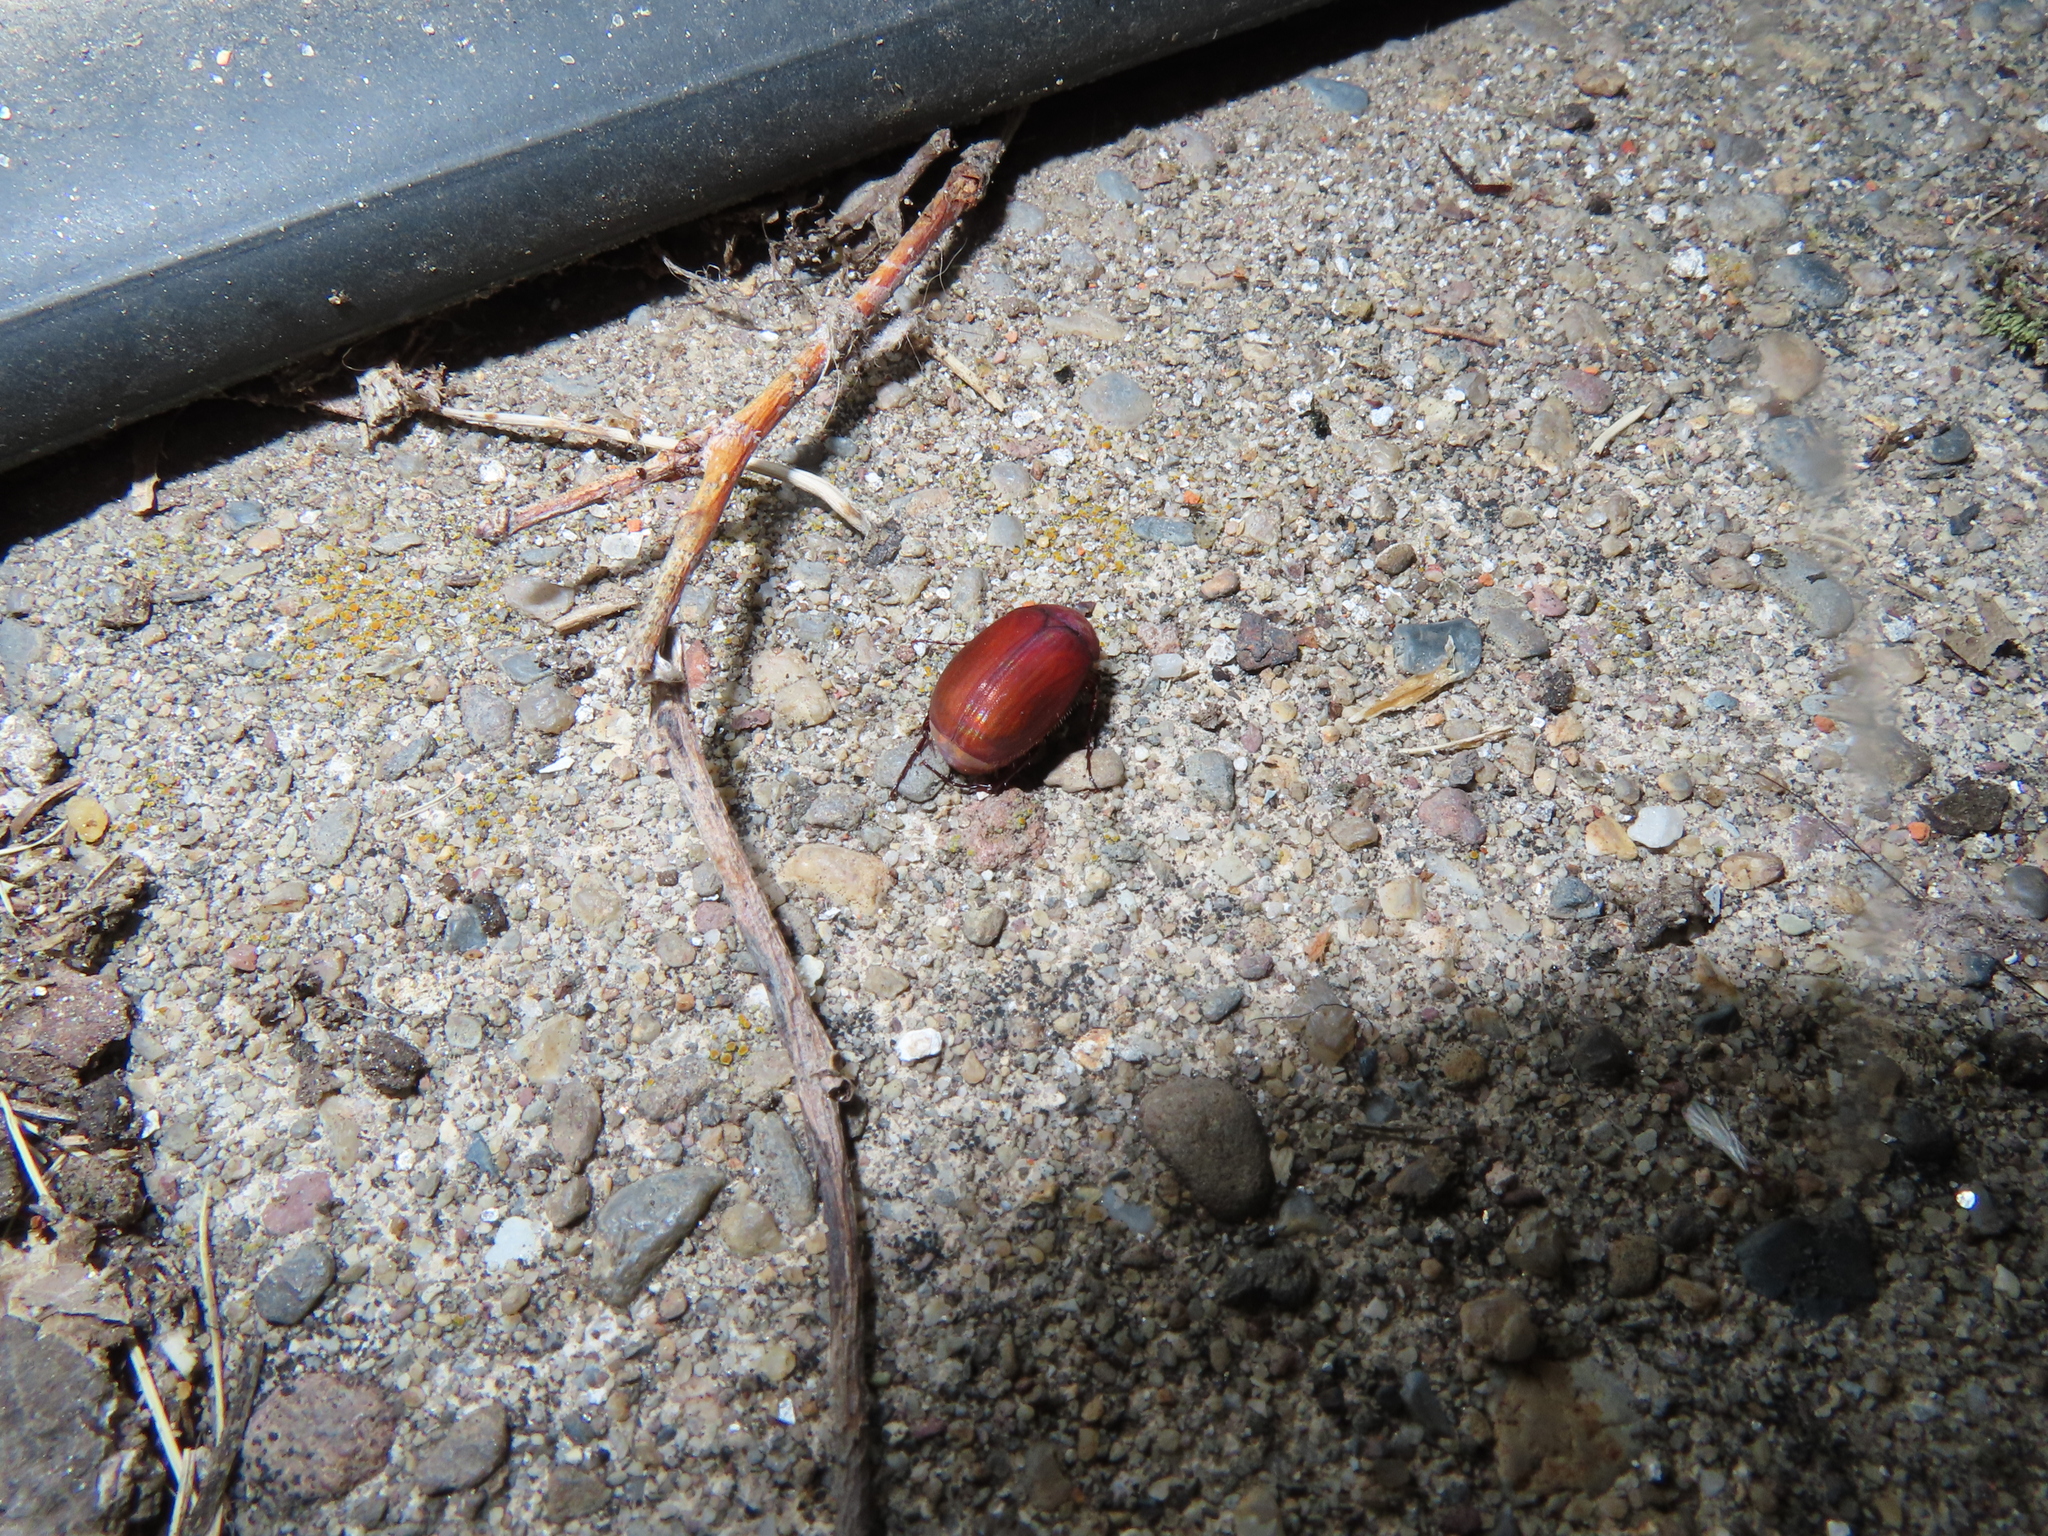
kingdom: Animalia
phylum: Arthropoda
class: Insecta
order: Coleoptera
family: Scarabaeidae
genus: Maladera
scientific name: Maladera formosae
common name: Asiatic garden beetle
